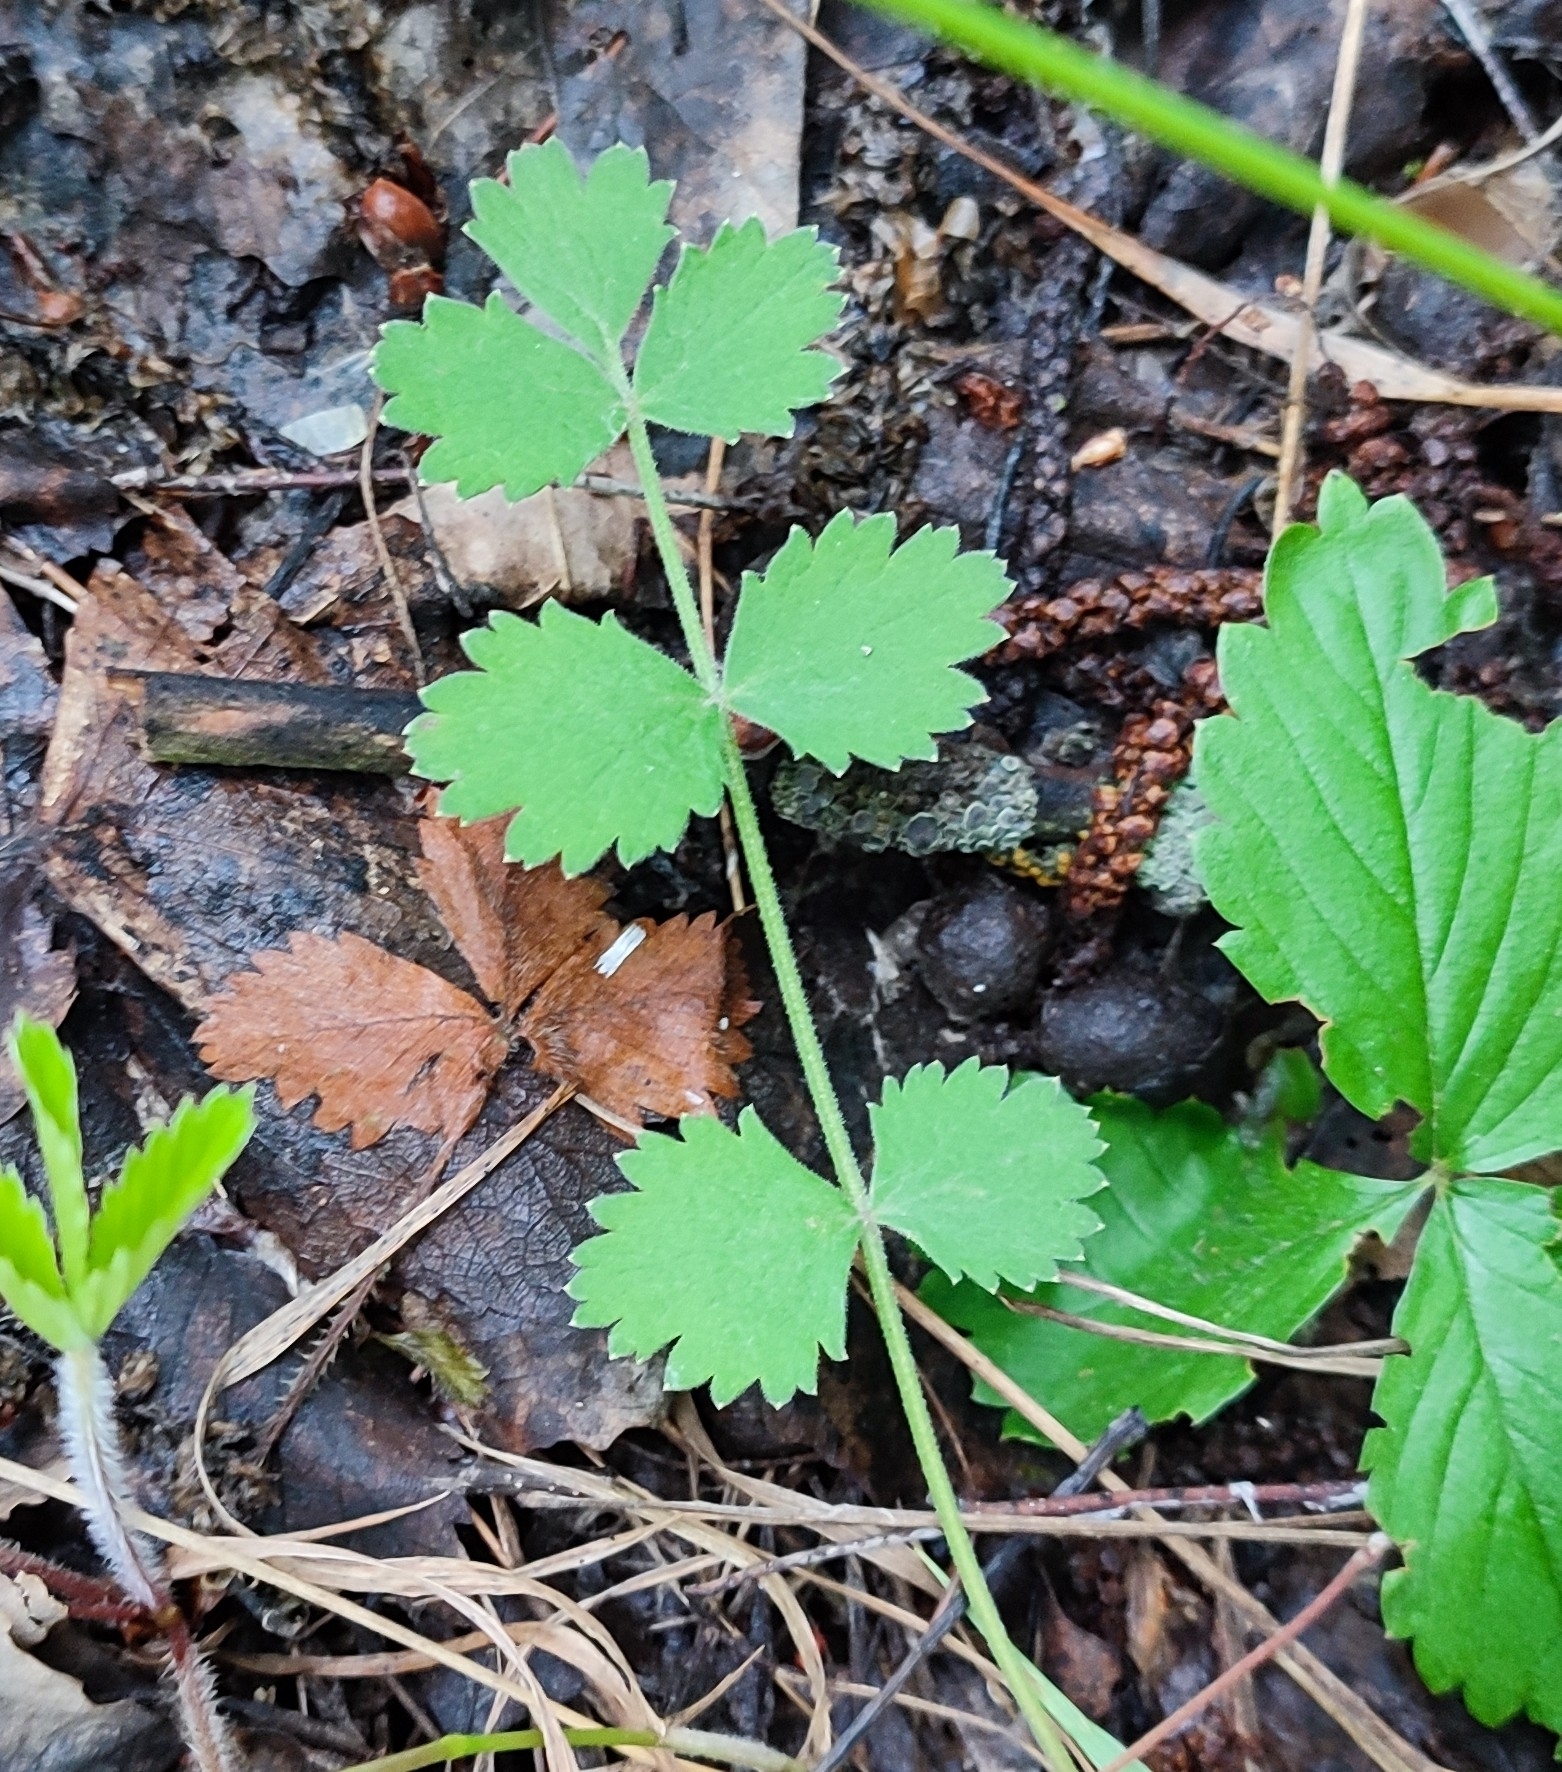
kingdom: Plantae
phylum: Tracheophyta
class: Magnoliopsida
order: Apiales
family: Apiaceae
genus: Pimpinella
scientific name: Pimpinella saxifraga
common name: Burnet-saxifrage
